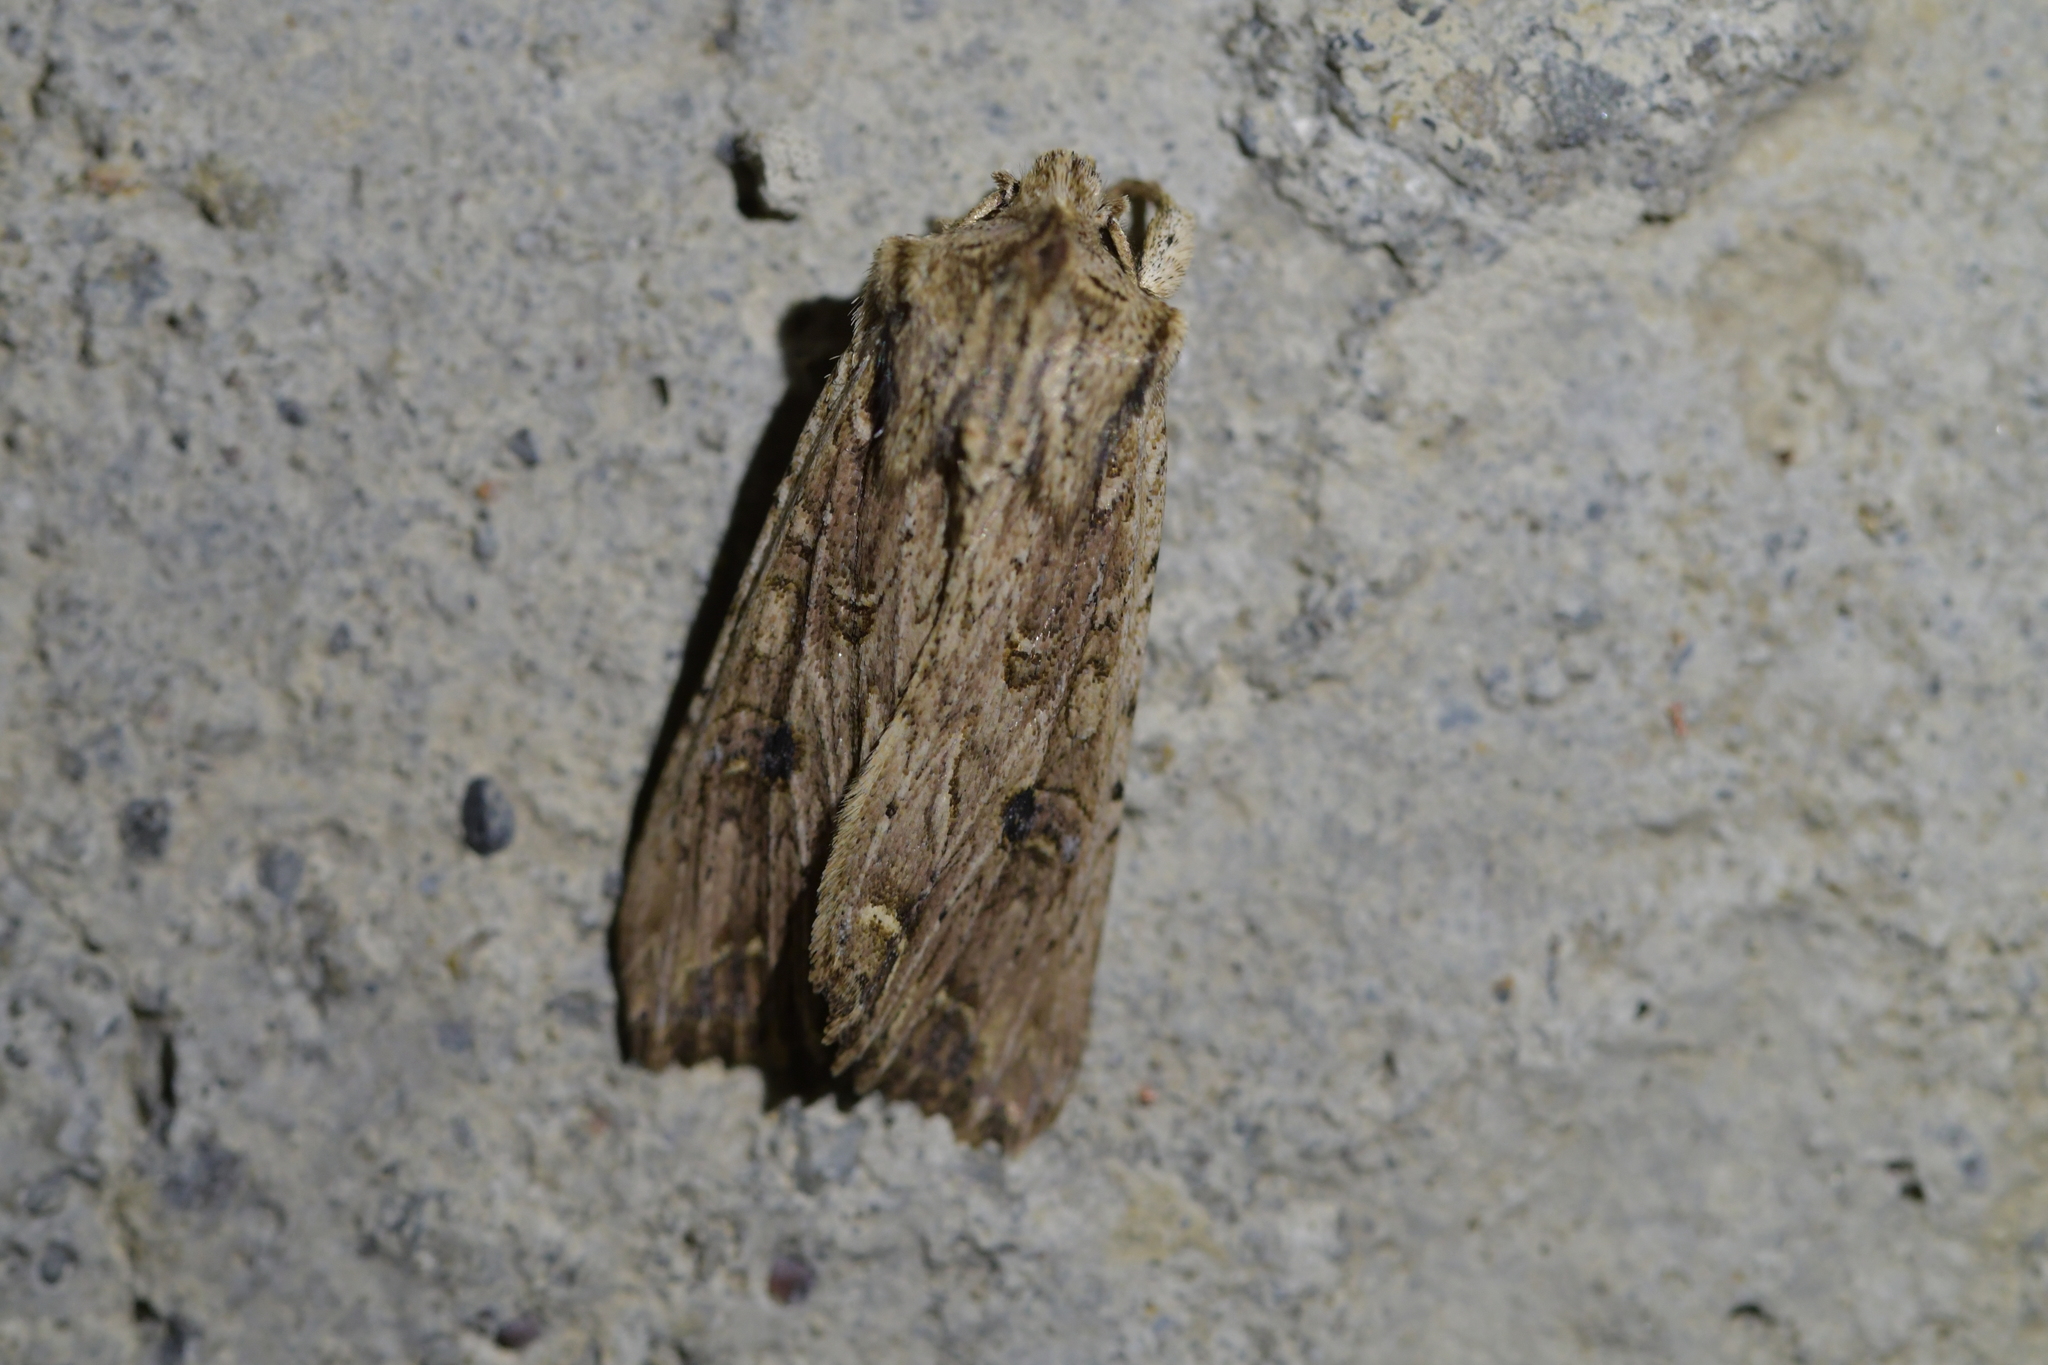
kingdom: Animalia
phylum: Arthropoda
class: Insecta
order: Lepidoptera
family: Noctuidae
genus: Ichneutica
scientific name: Ichneutica lignana
